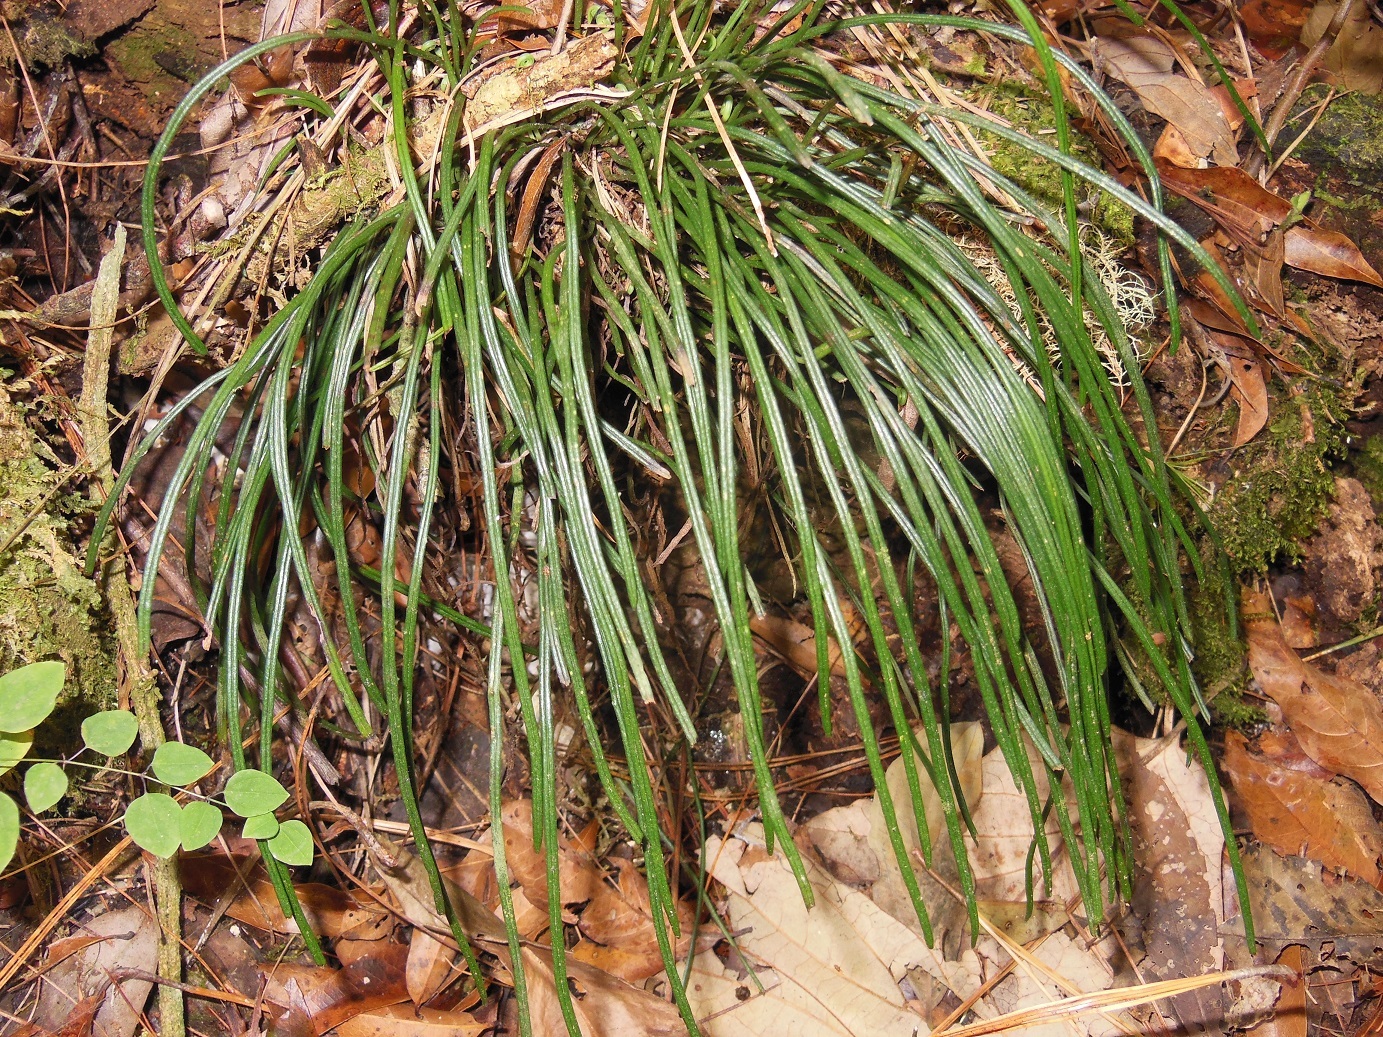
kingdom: Plantae
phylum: Tracheophyta
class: Polypodiopsida
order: Polypodiales
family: Pteridaceae
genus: Vittaria
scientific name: Vittaria graminifolia
